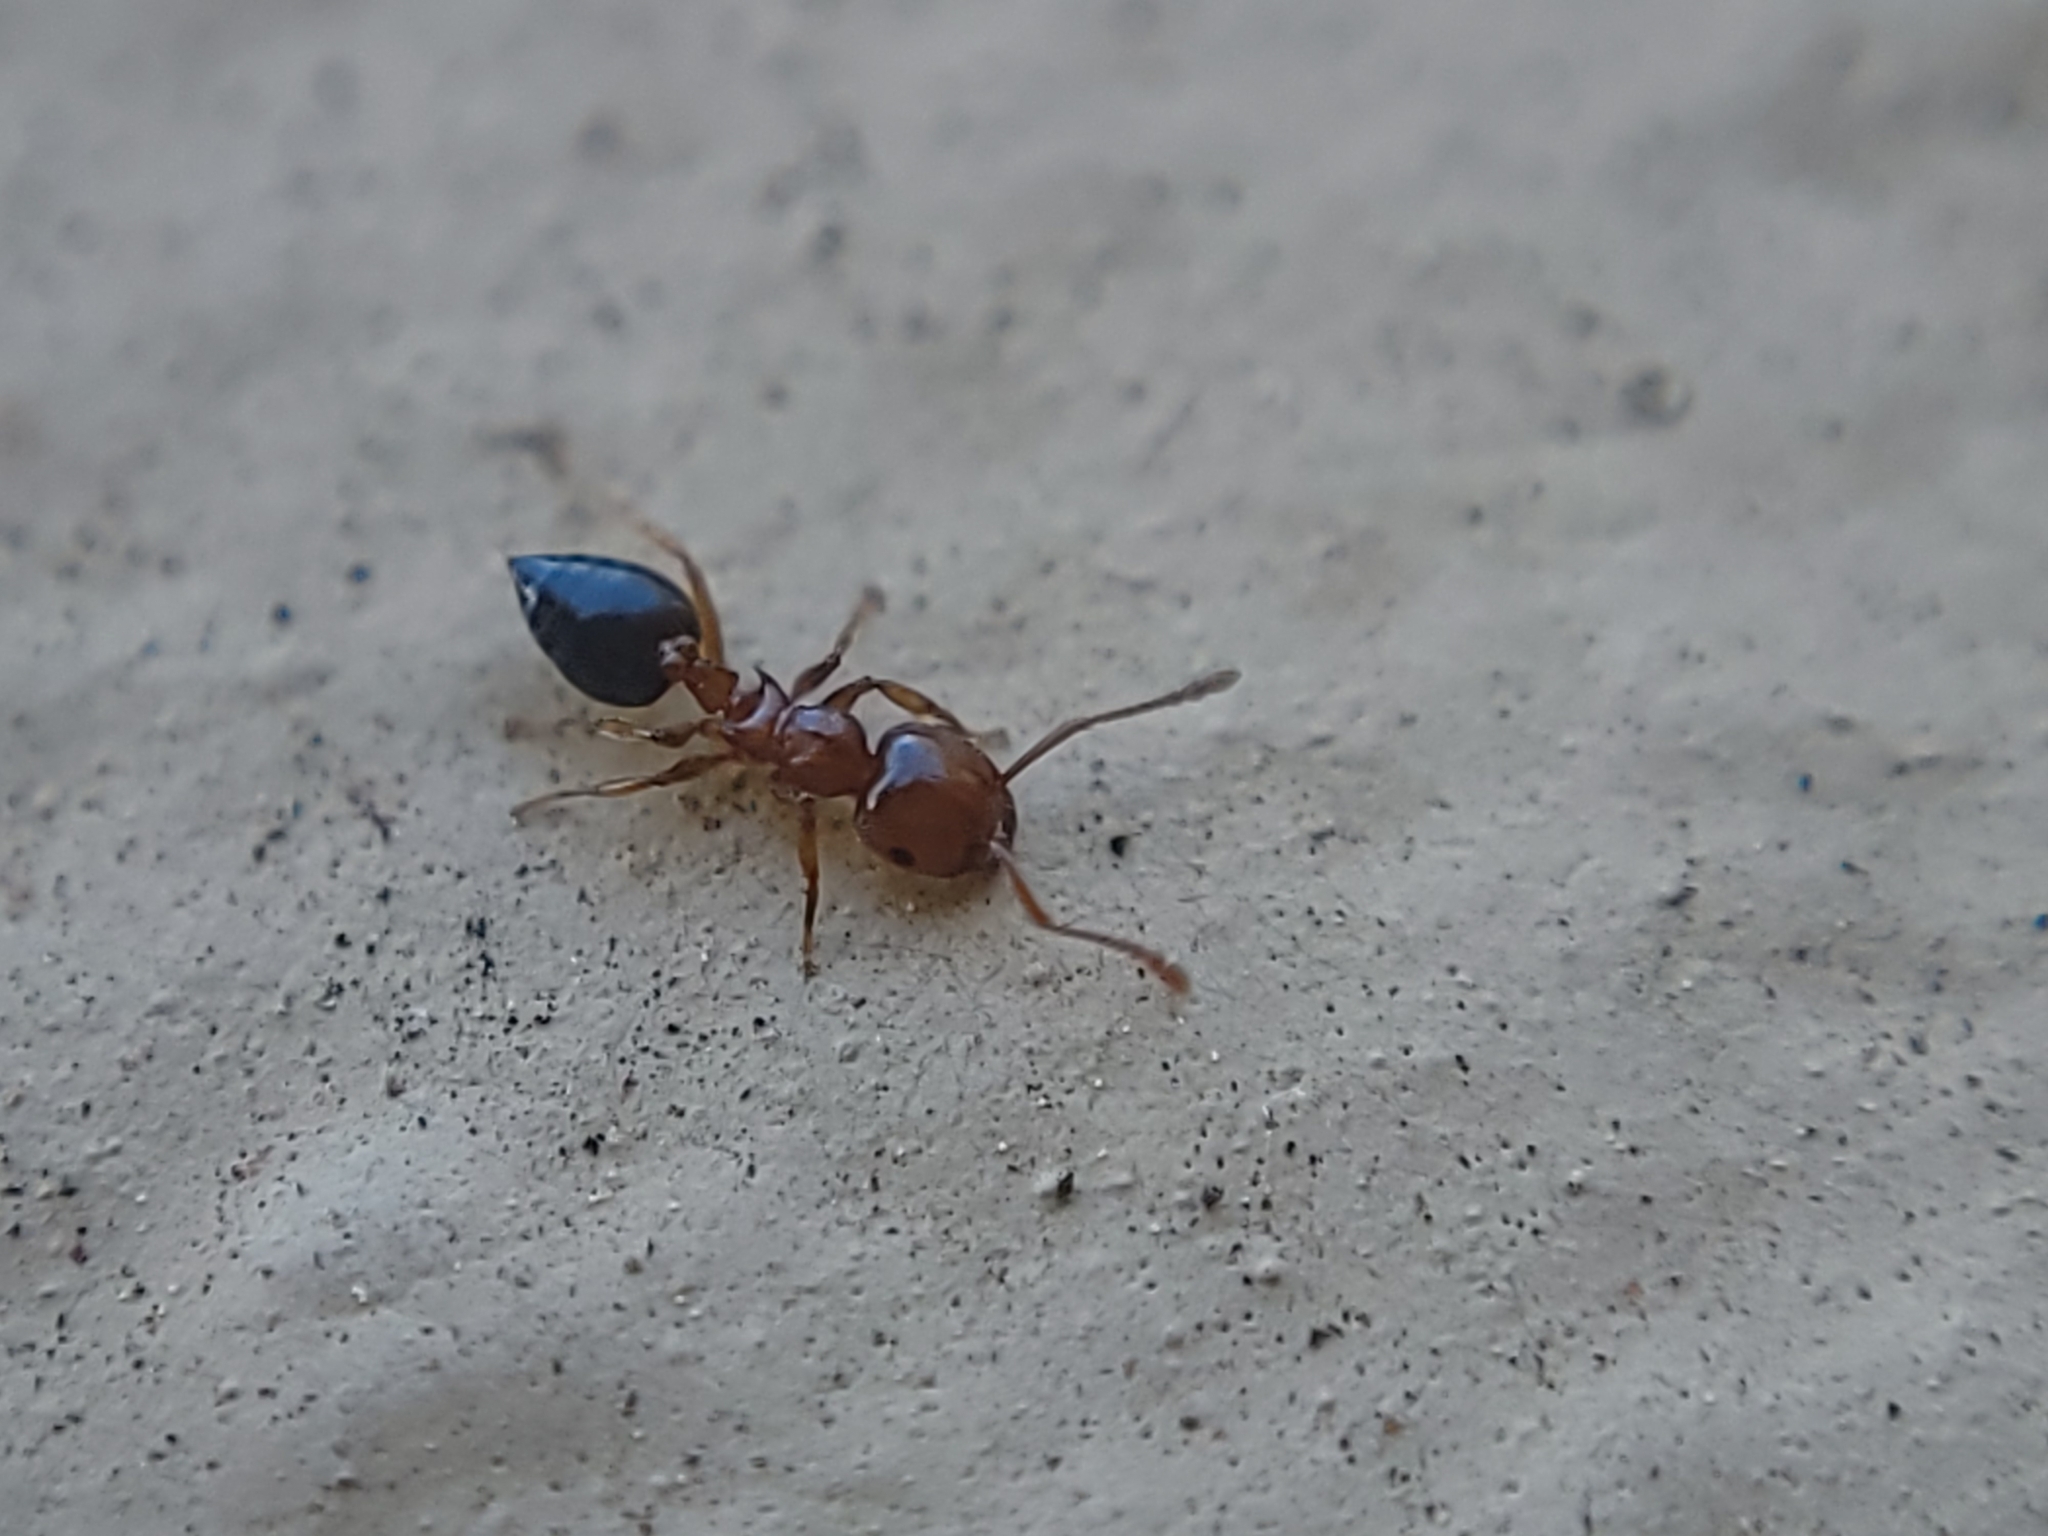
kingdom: Animalia
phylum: Arthropoda
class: Insecta
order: Hymenoptera
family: Formicidae
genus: Crematogaster
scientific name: Crematogaster pinicola
